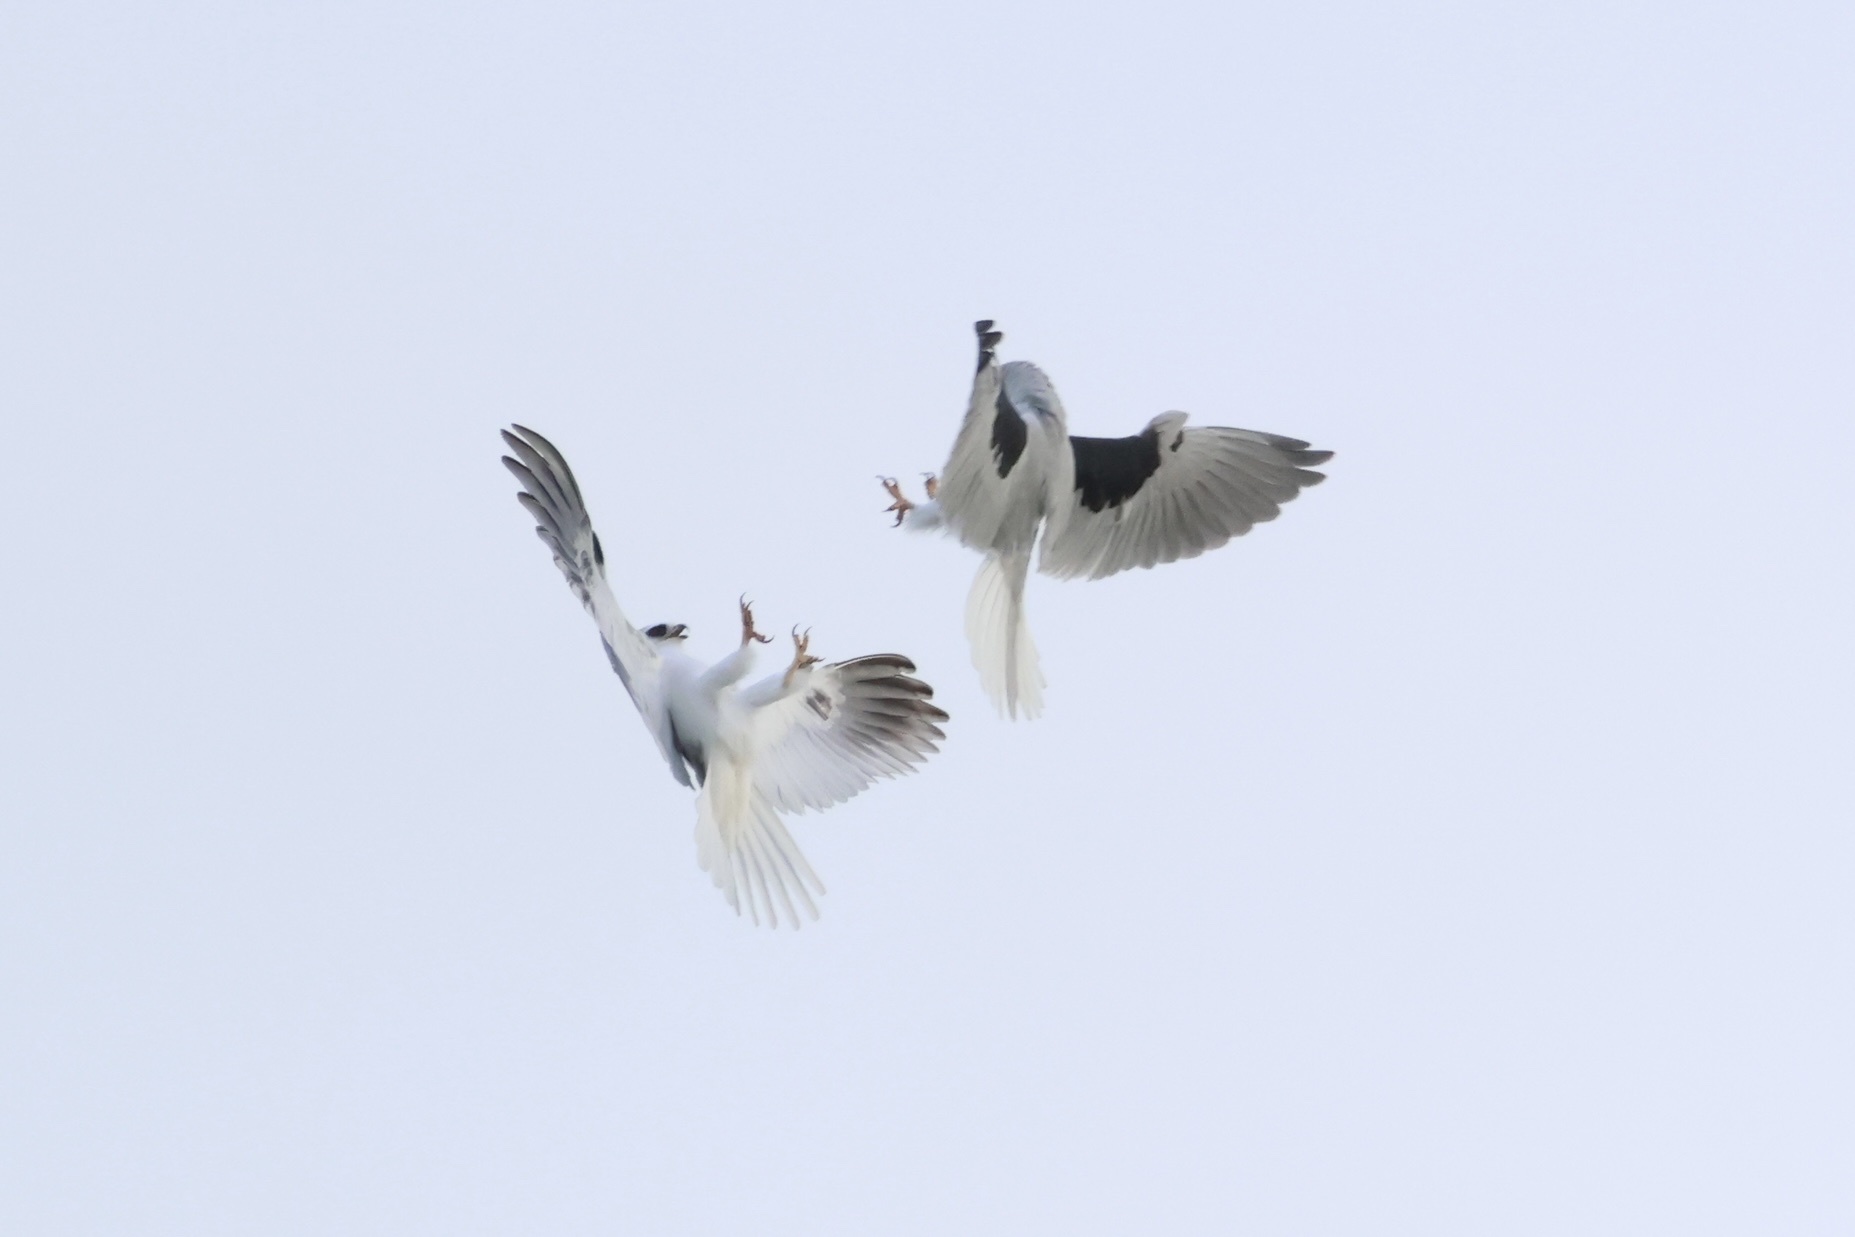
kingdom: Animalia
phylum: Chordata
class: Aves
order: Accipitriformes
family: Accipitridae
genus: Elanus
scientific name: Elanus leucurus
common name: White-tailed kite
